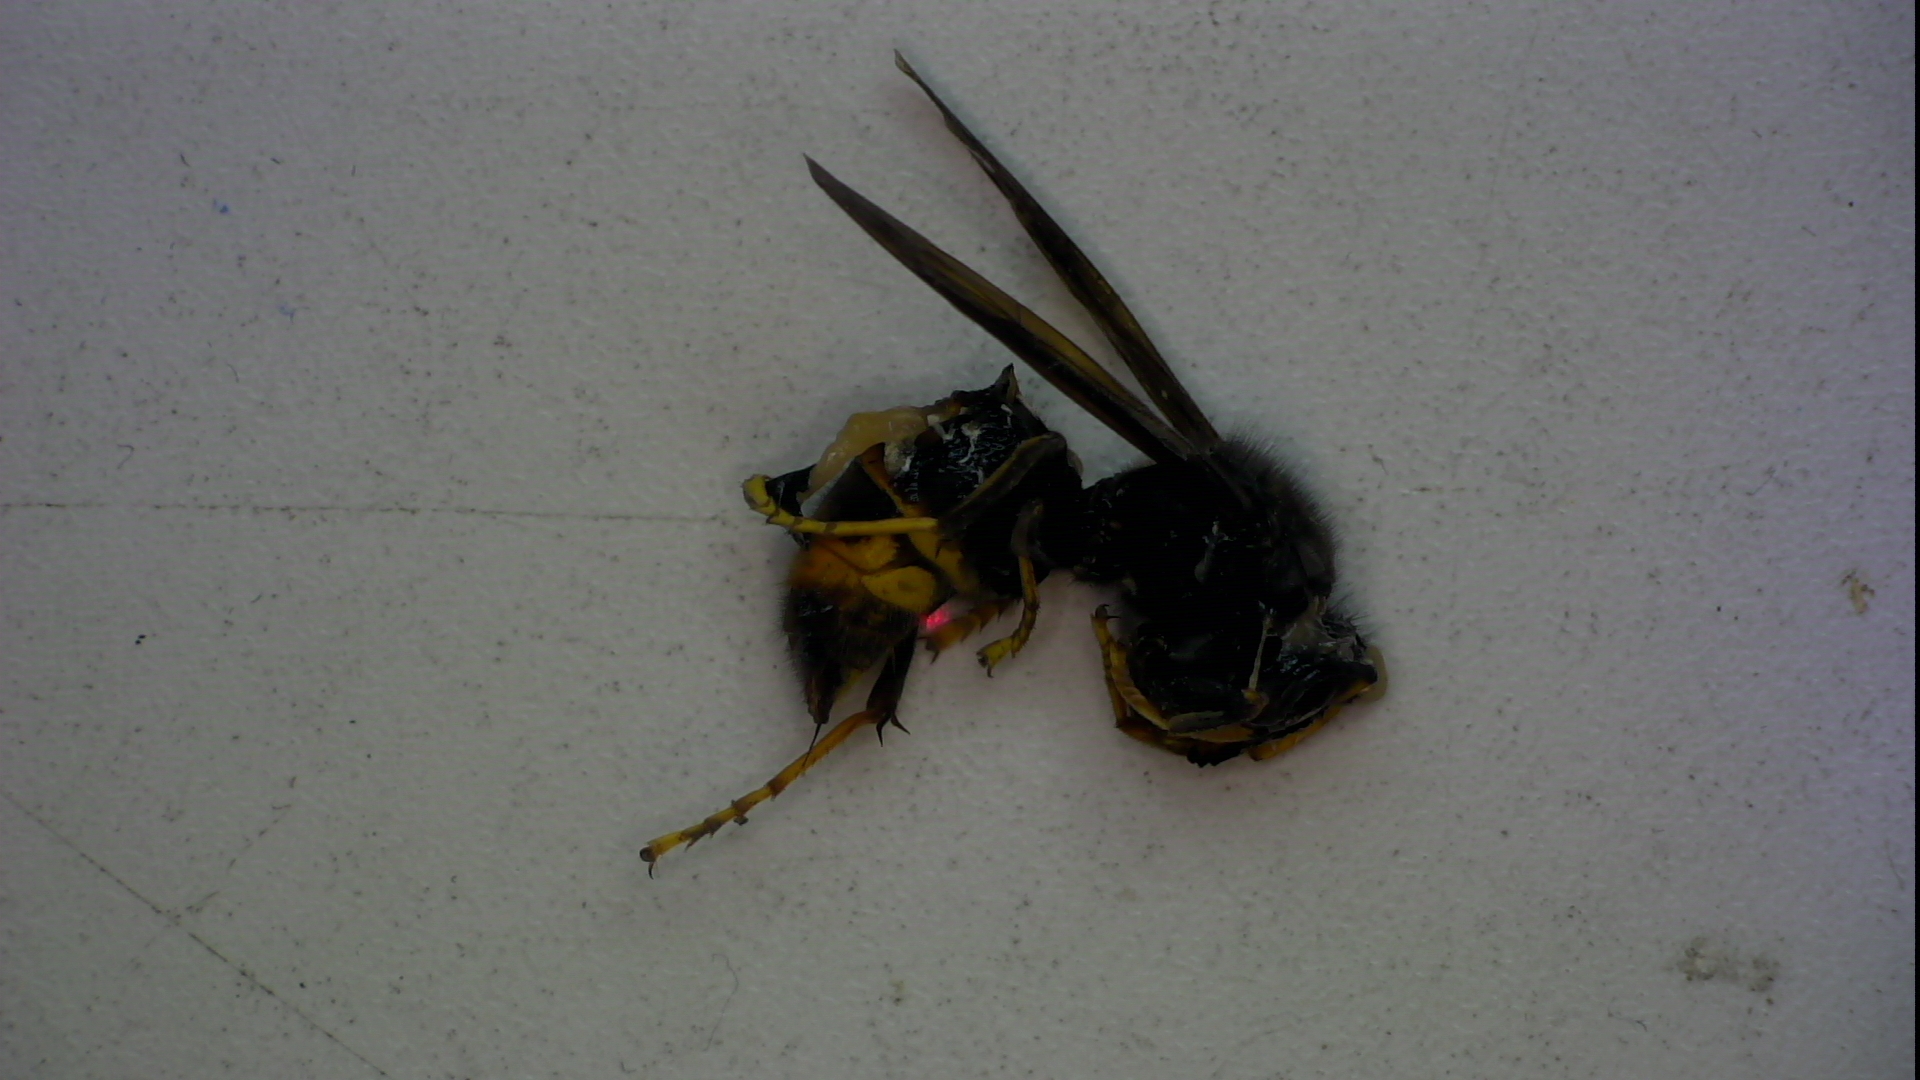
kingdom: Animalia
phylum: Arthropoda
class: Insecta
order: Hymenoptera
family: Vespidae
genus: Vespa
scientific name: Vespa velutina
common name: Asian hornet
